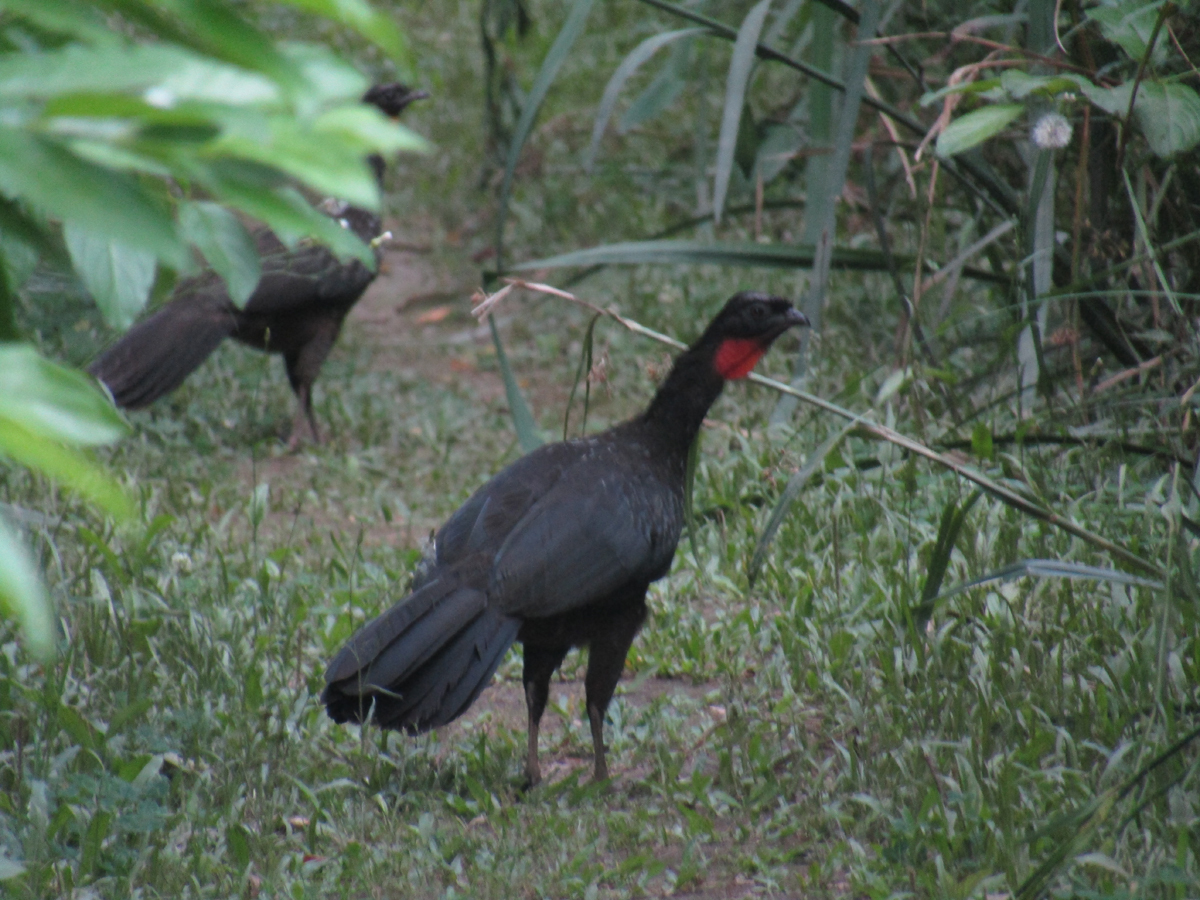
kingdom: Animalia
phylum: Chordata
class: Aves
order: Galliformes
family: Cracidae
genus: Penelope
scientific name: Penelope obscura
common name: Dusky-legged guan
